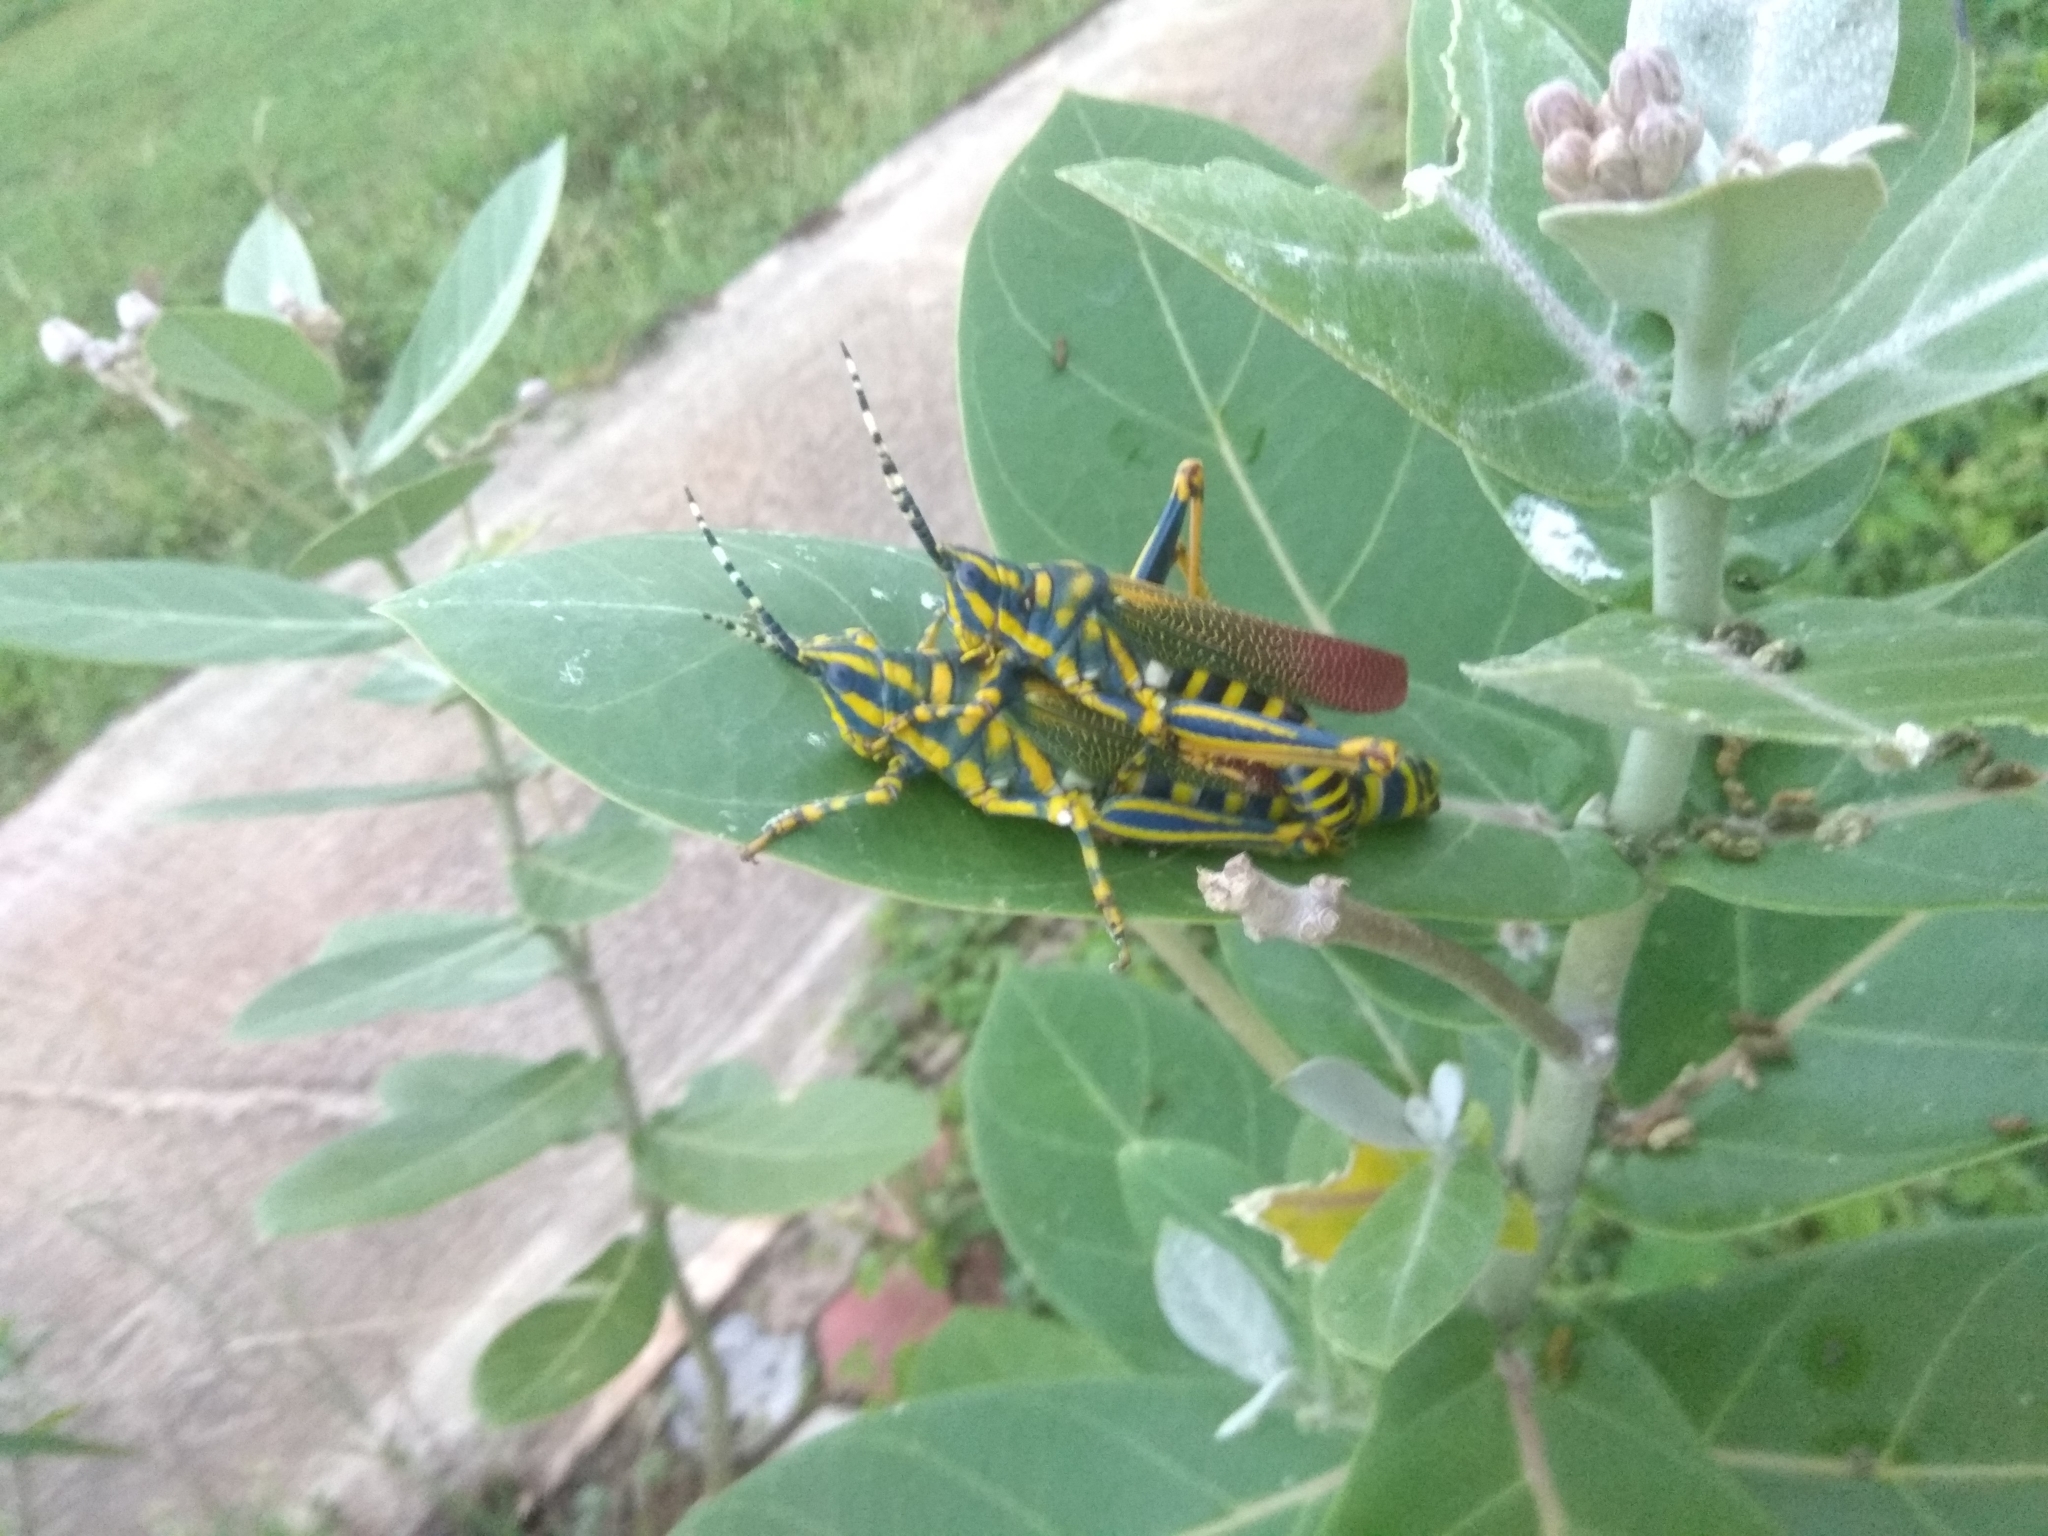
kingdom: Animalia
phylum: Arthropoda
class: Insecta
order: Orthoptera
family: Pyrgomorphidae
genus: Poekilocerus
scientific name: Poekilocerus pictus
